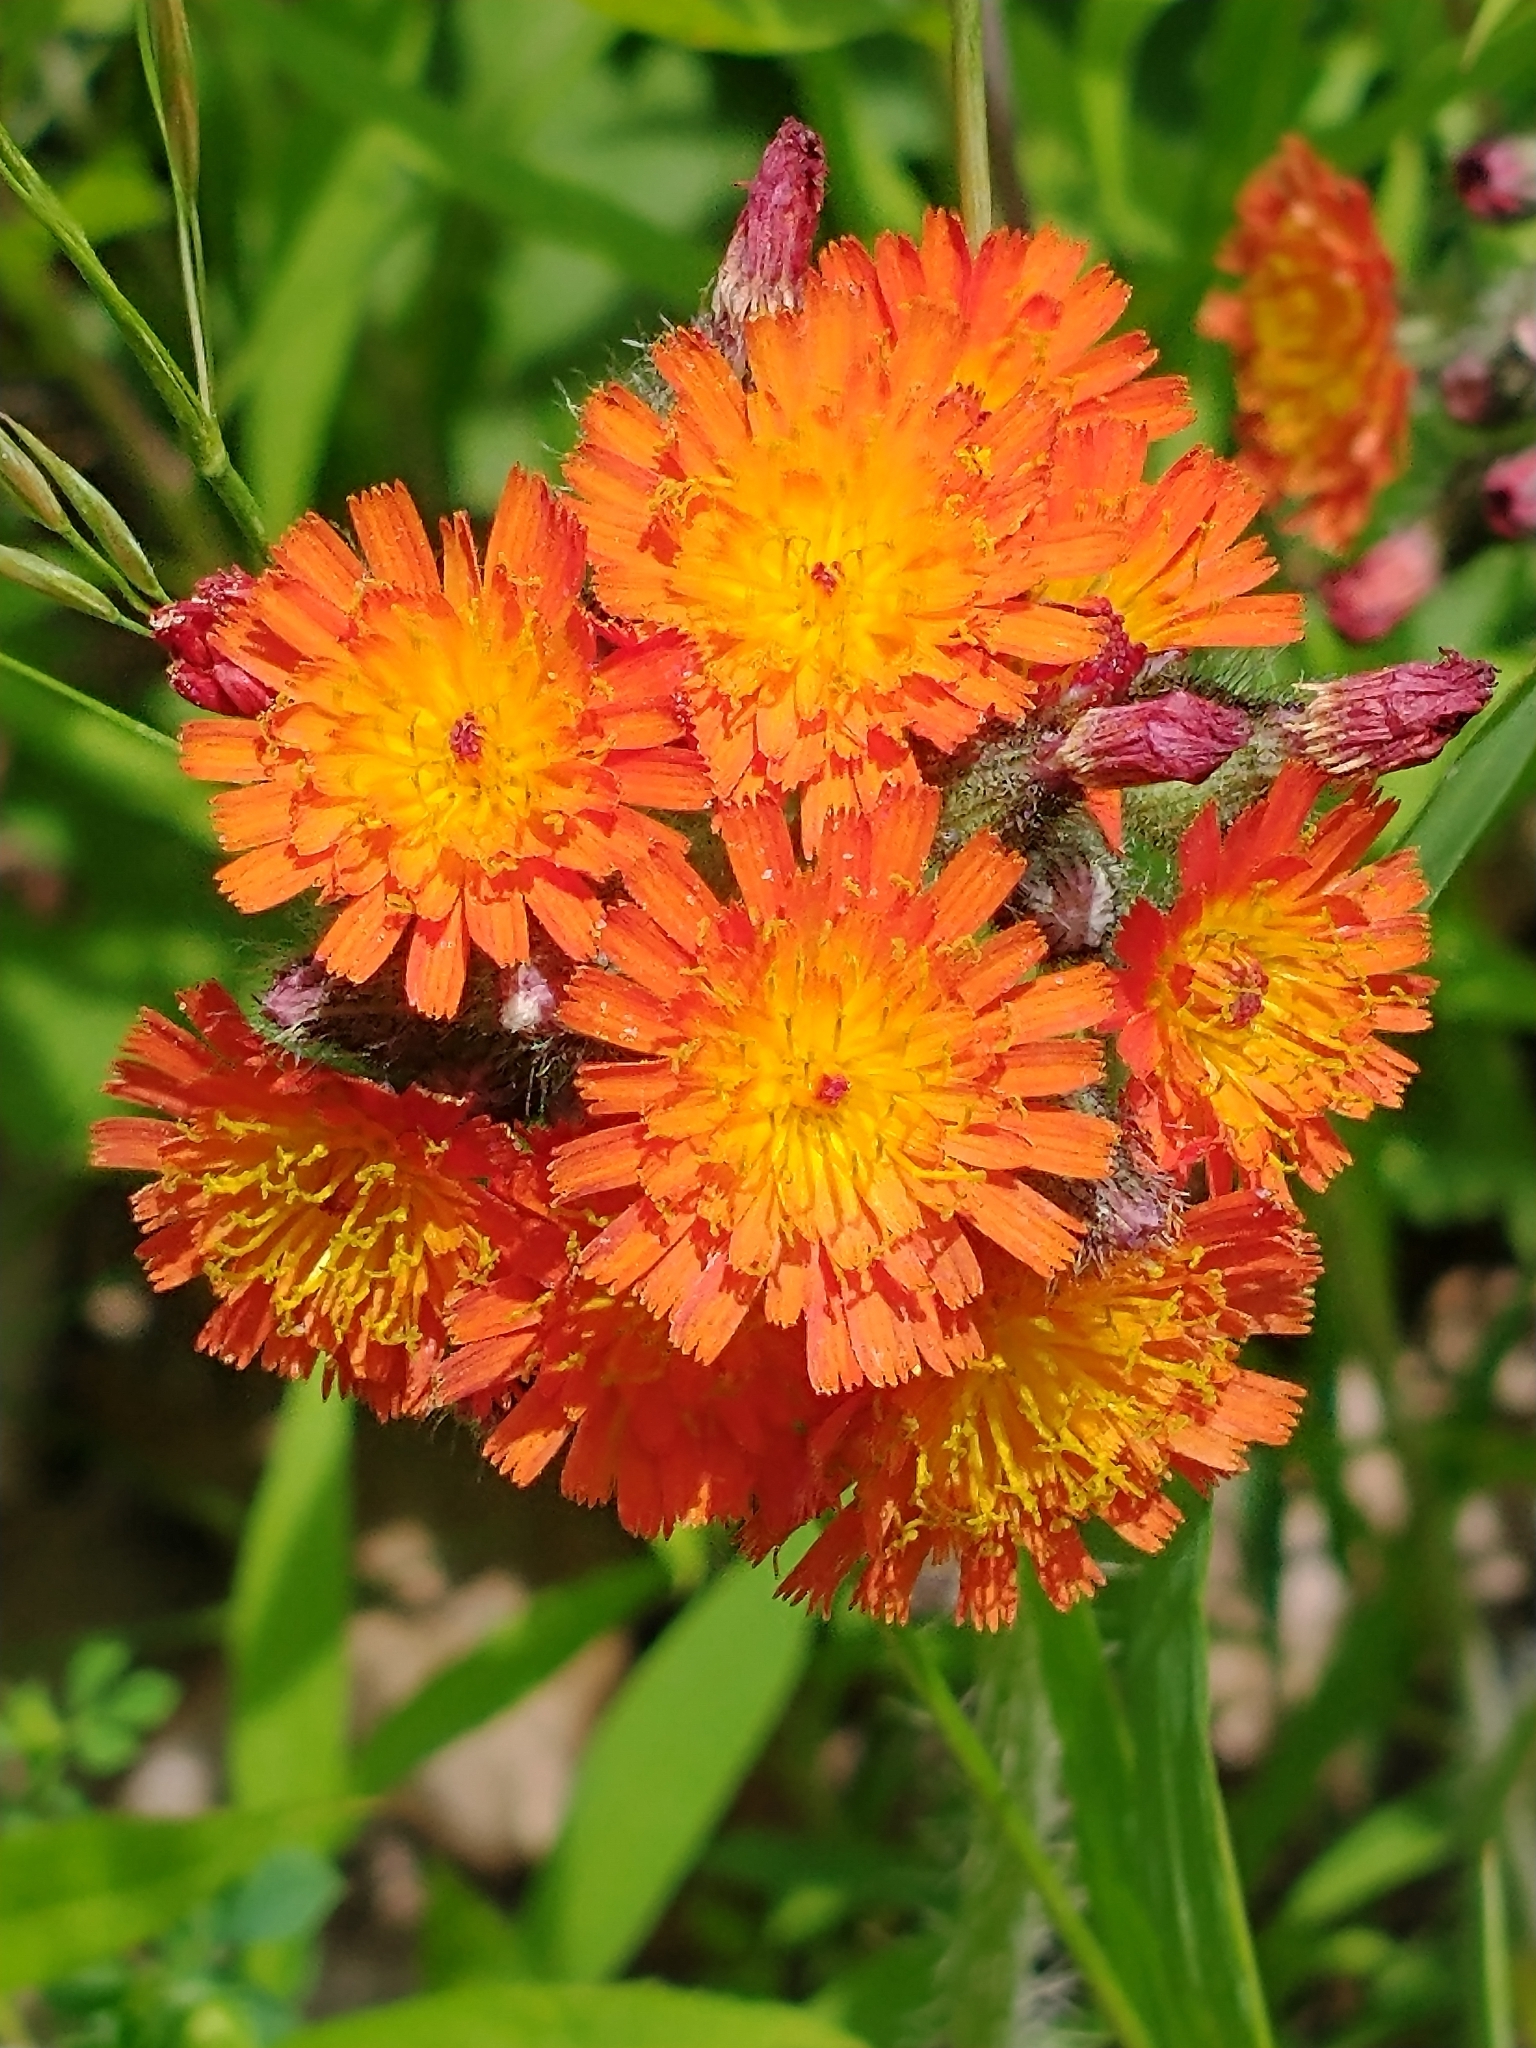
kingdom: Plantae
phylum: Tracheophyta
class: Magnoliopsida
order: Asterales
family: Asteraceae
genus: Pilosella
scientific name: Pilosella aurantiaca
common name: Fox-and-cubs
